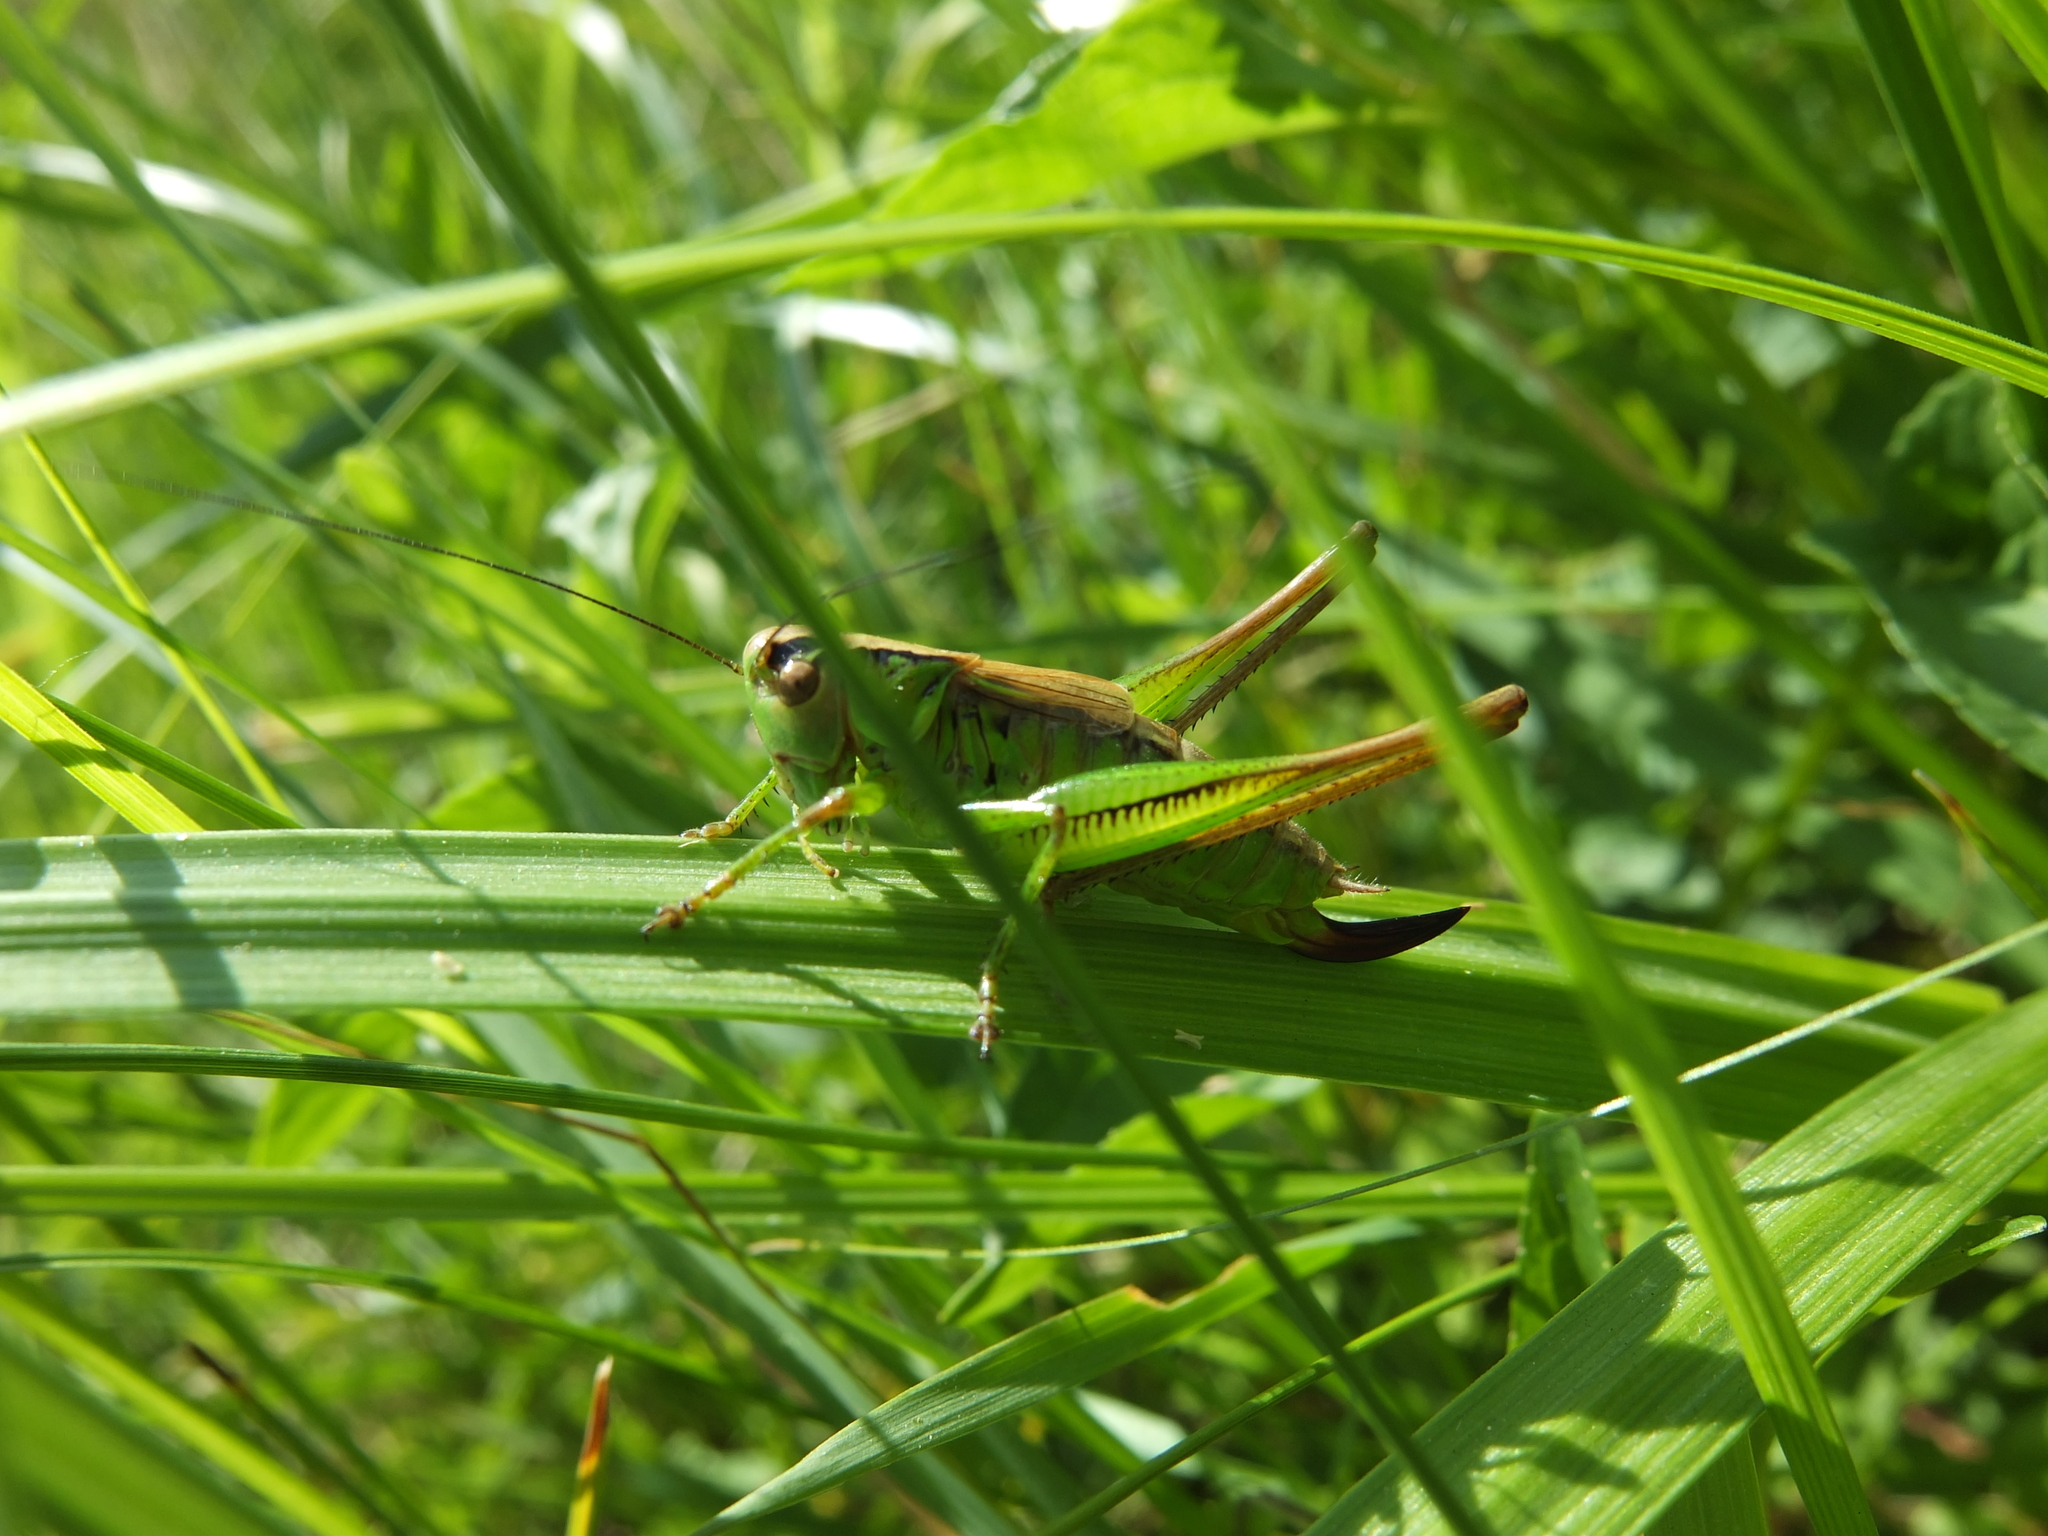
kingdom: Animalia
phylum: Arthropoda
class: Insecta
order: Orthoptera
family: Tettigoniidae
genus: Roeseliana
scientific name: Roeseliana roeselii
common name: Roesel's bush cricket
